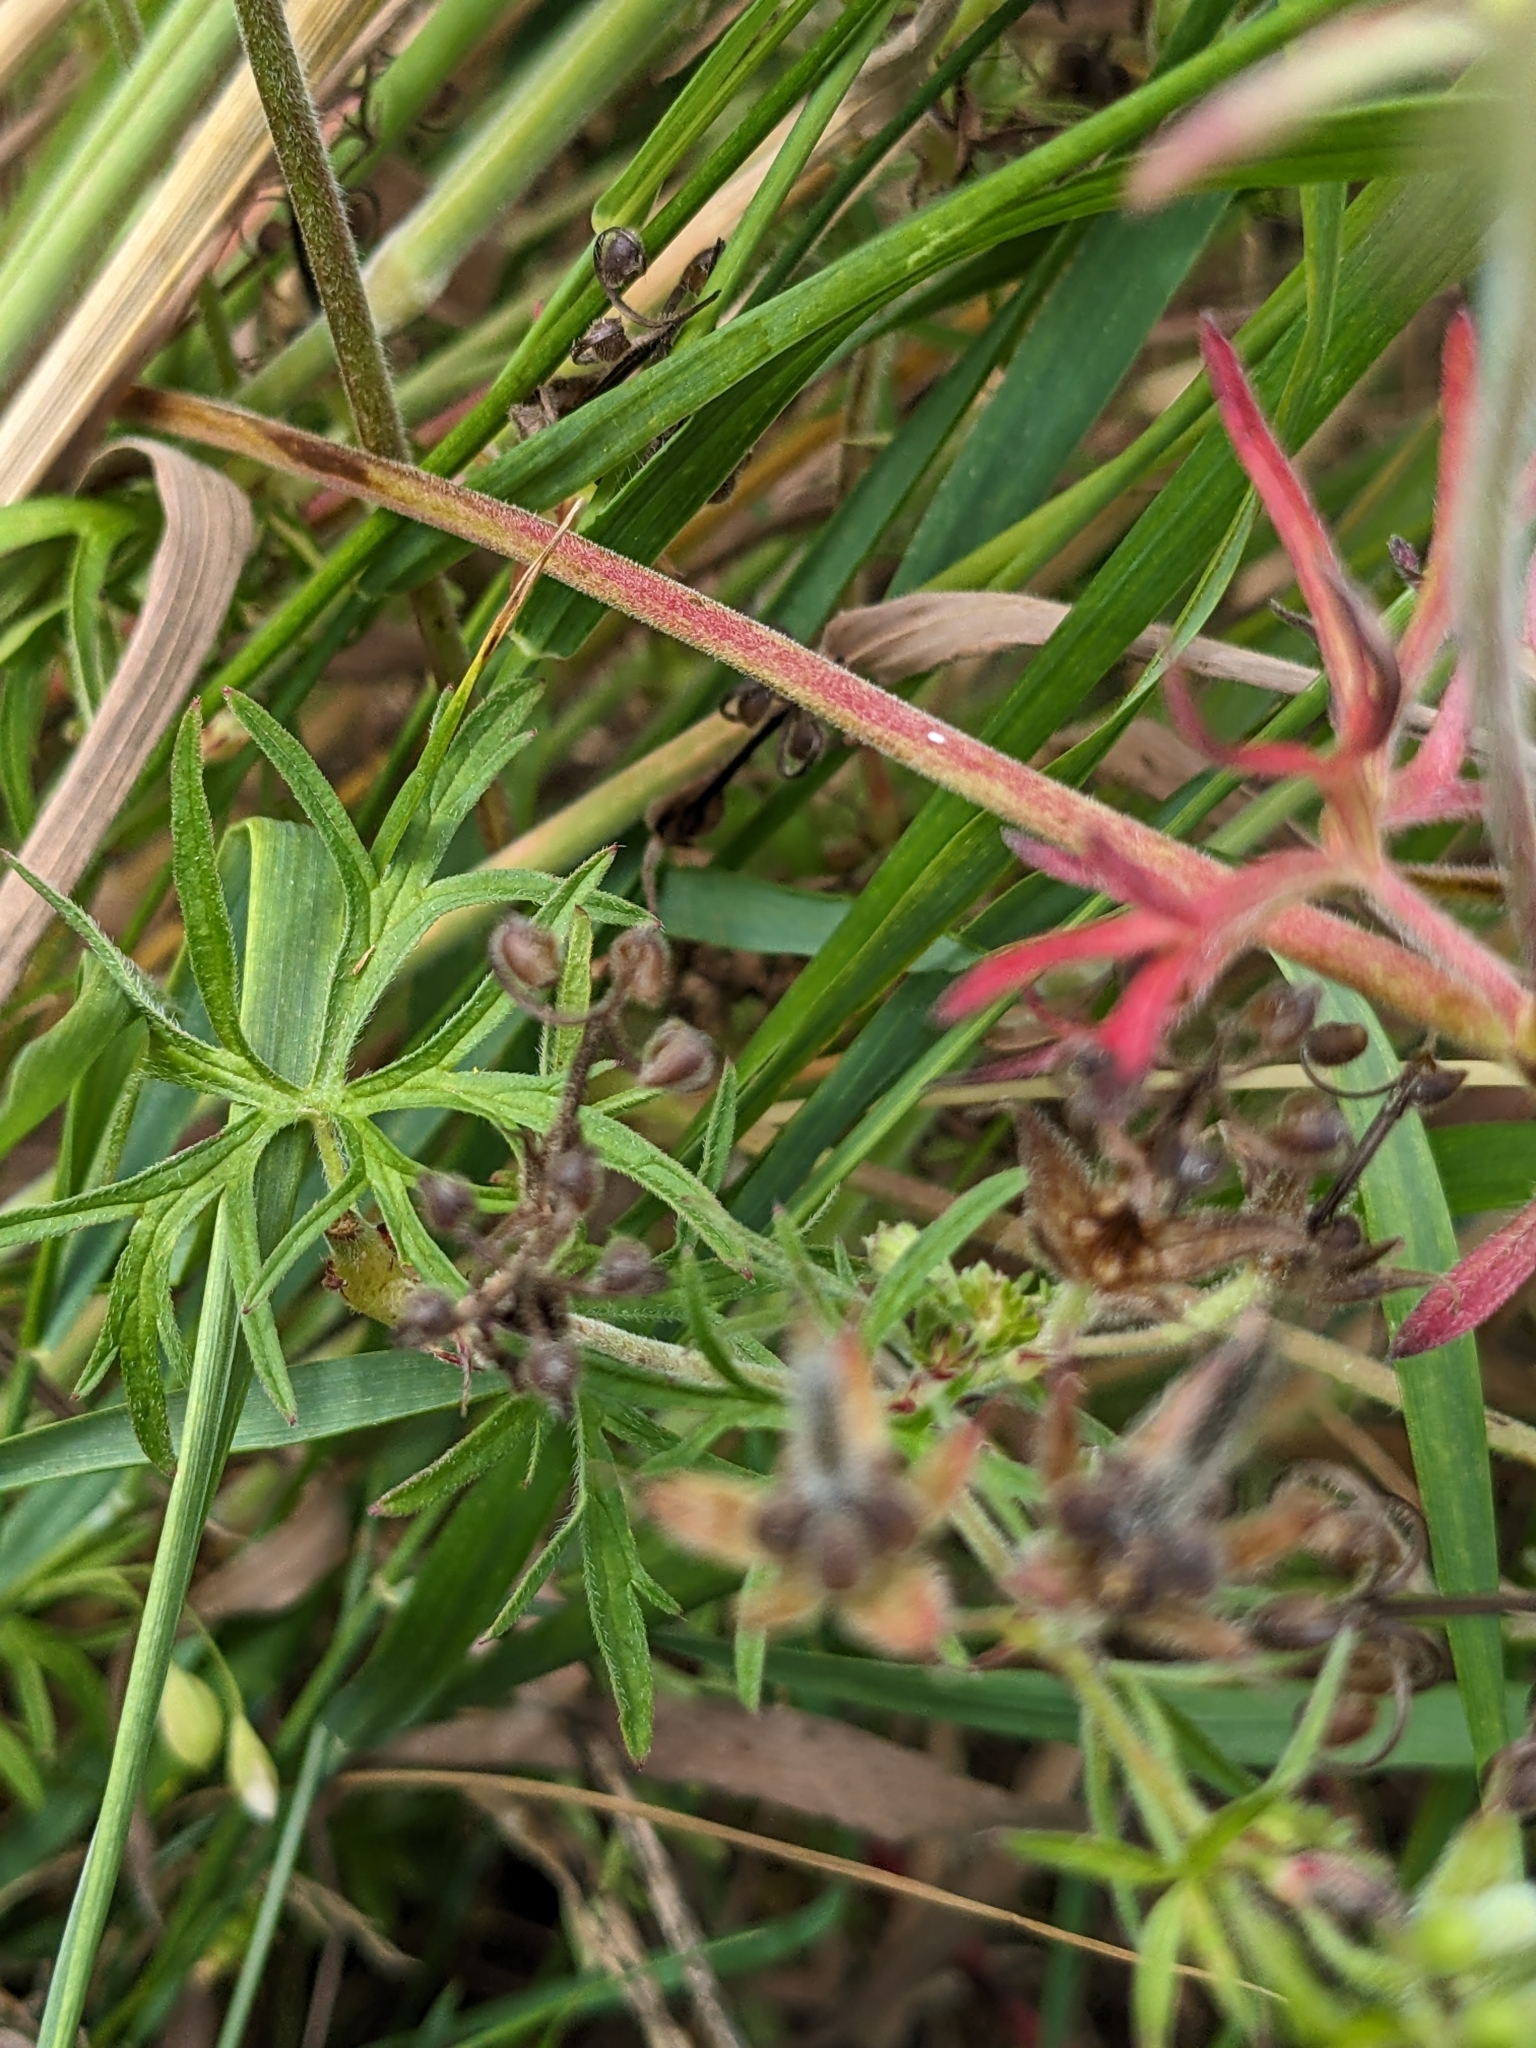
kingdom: Plantae
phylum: Tracheophyta
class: Magnoliopsida
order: Geraniales
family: Geraniaceae
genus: Geranium
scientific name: Geranium dissectum
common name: Cut-leaved crane's-bill
